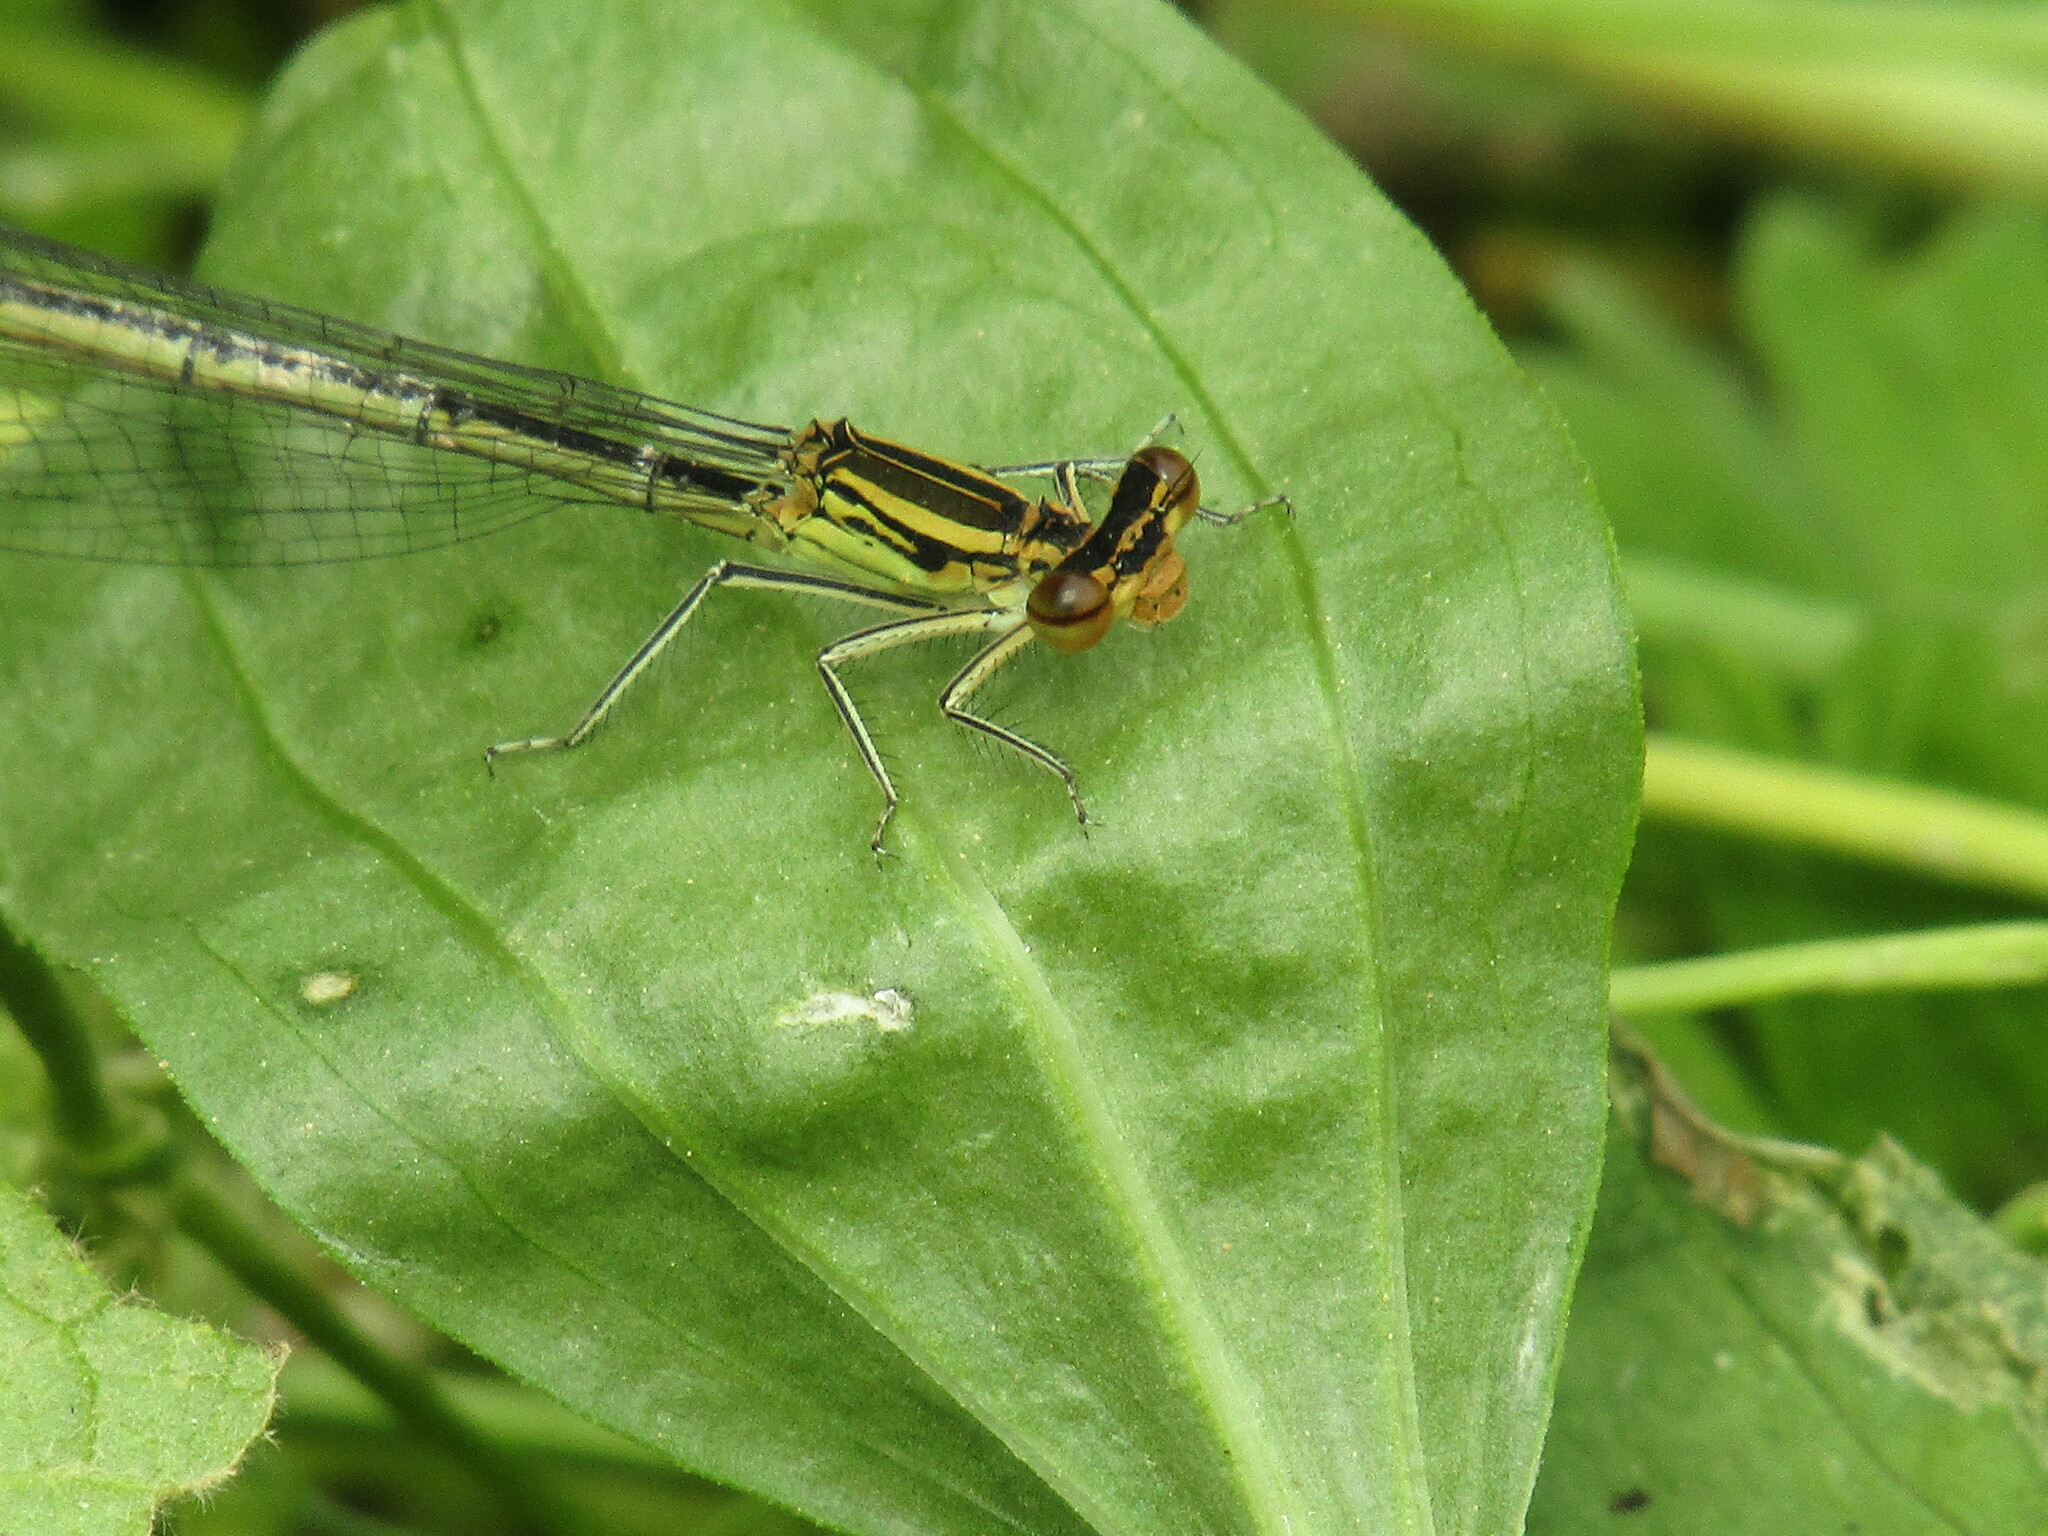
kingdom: Animalia
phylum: Arthropoda
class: Insecta
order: Odonata
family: Platycnemididae
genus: Platycnemis
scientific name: Platycnemis pennipes
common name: White-legged damselfly
